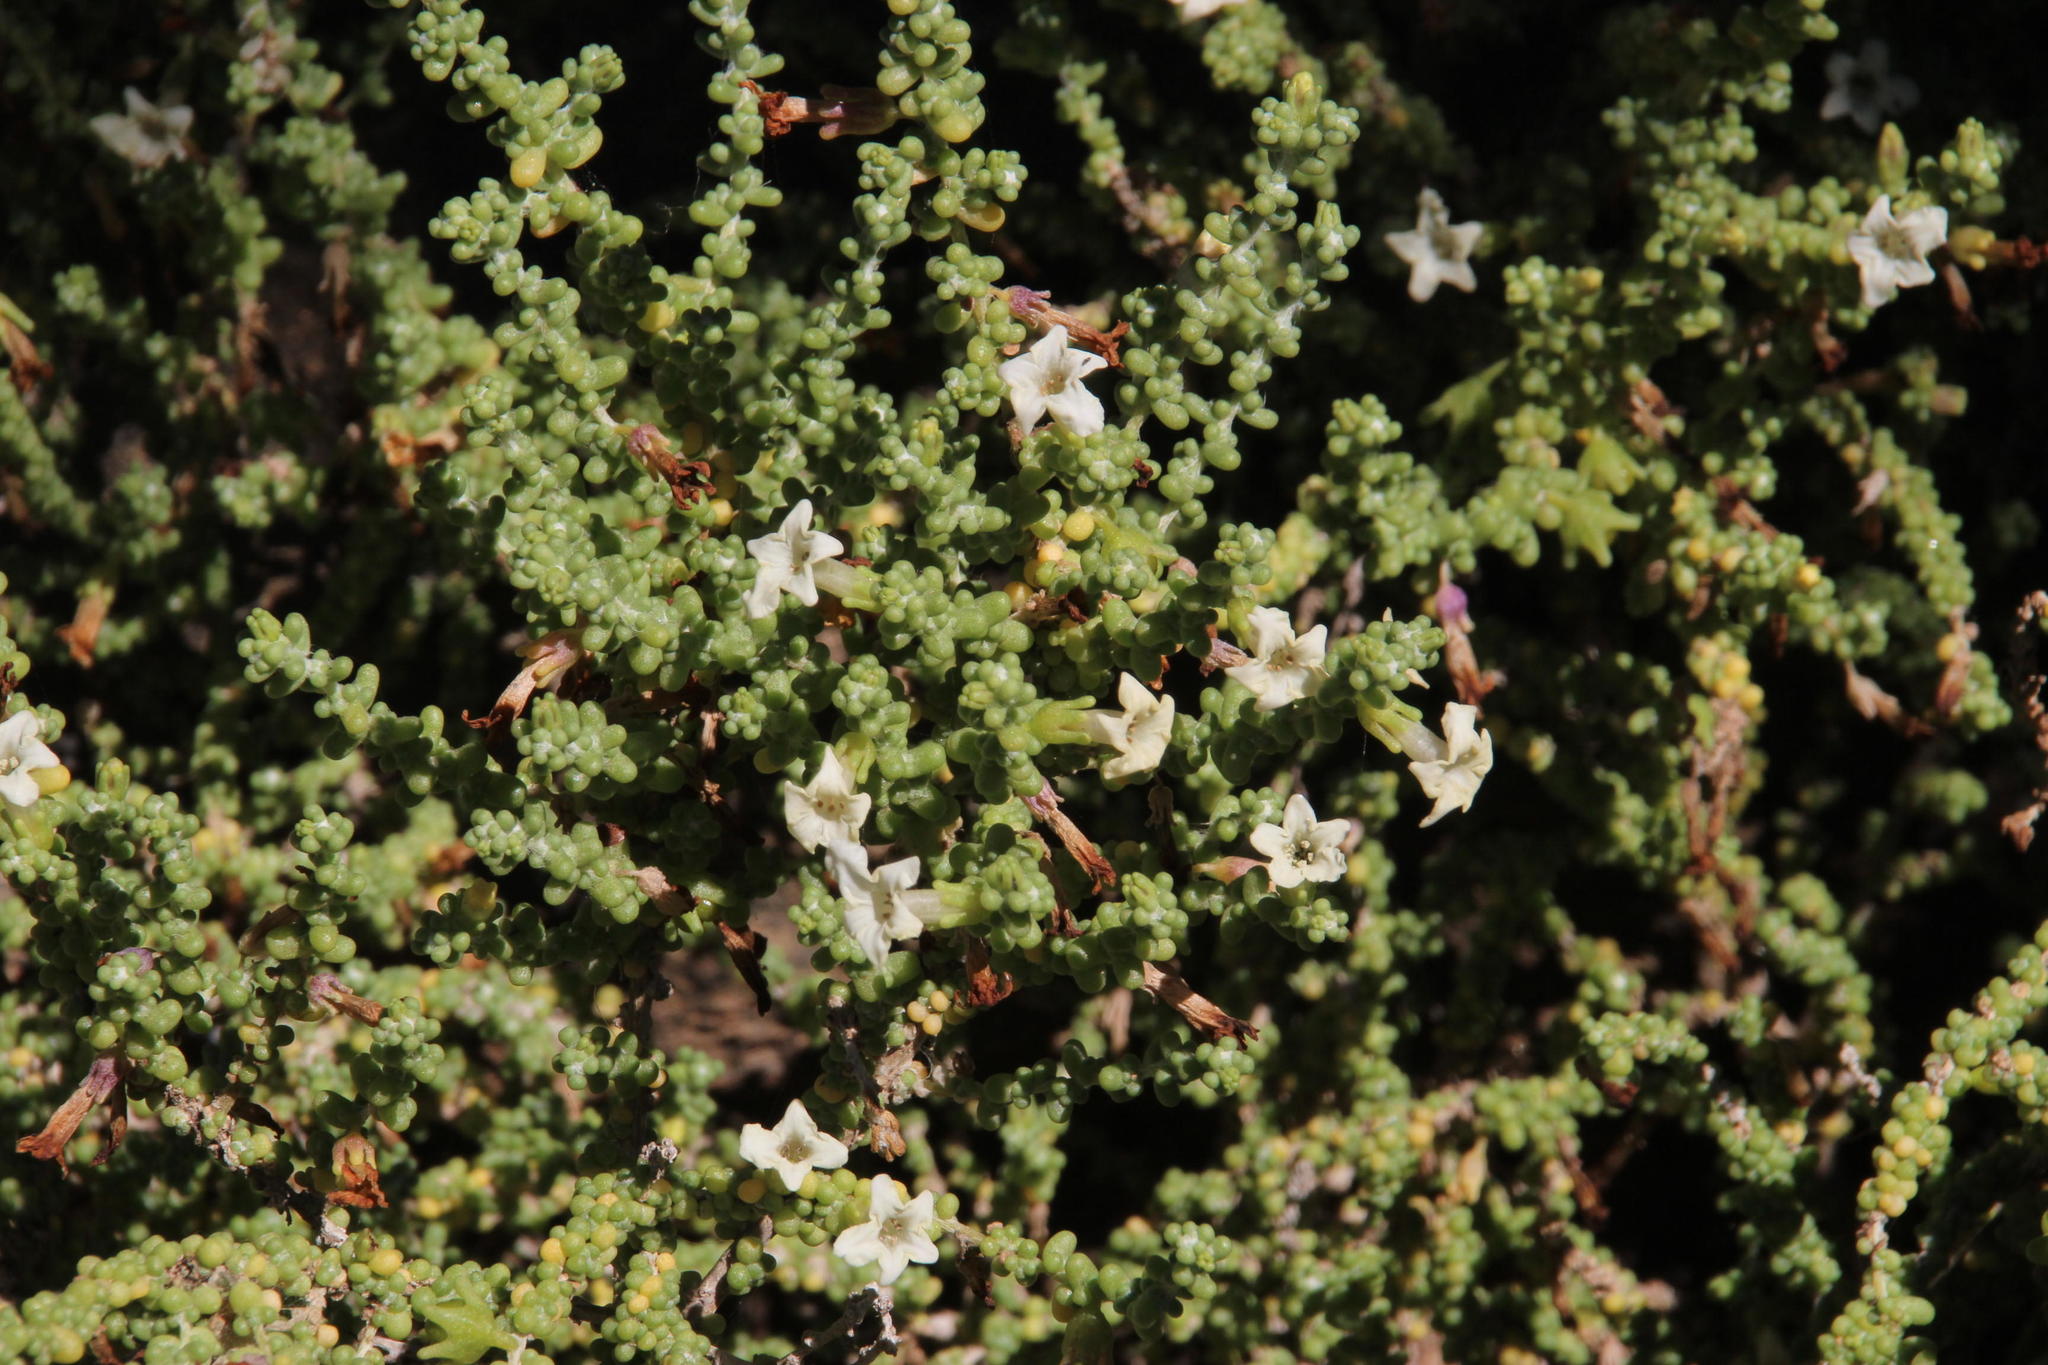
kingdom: Plantae
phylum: Tracheophyta
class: Magnoliopsida
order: Solanales
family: Solanaceae
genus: Nolana
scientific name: Nolana sedifolia
